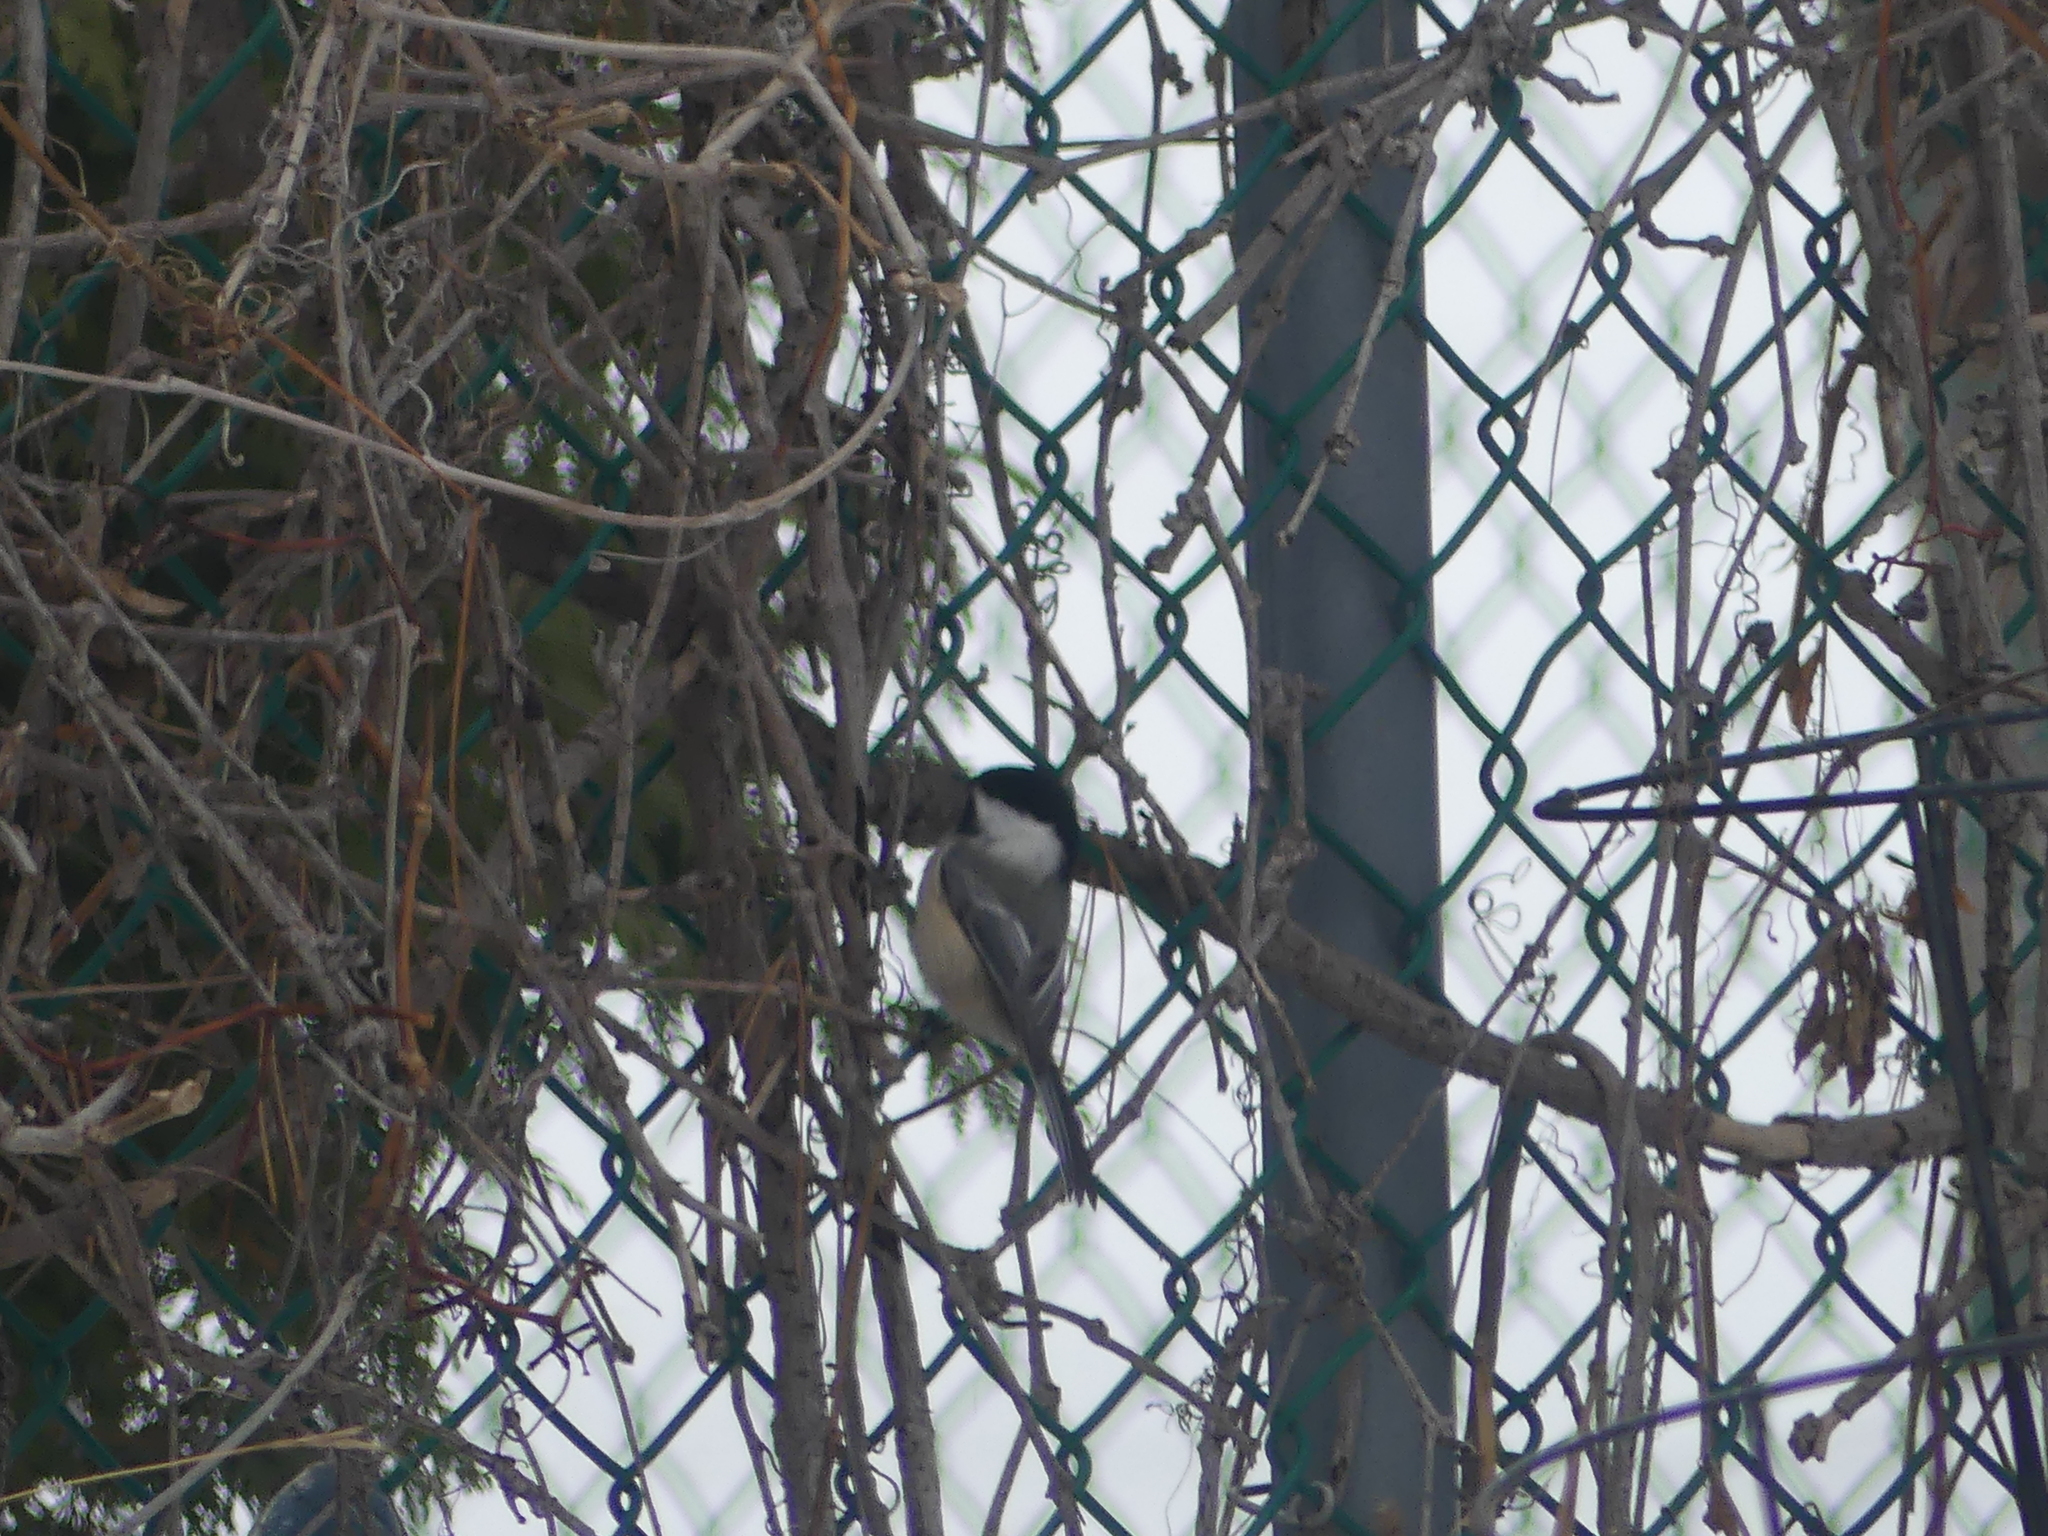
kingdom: Animalia
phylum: Chordata
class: Aves
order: Passeriformes
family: Paridae
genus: Poecile
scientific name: Poecile atricapillus
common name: Black-capped chickadee
